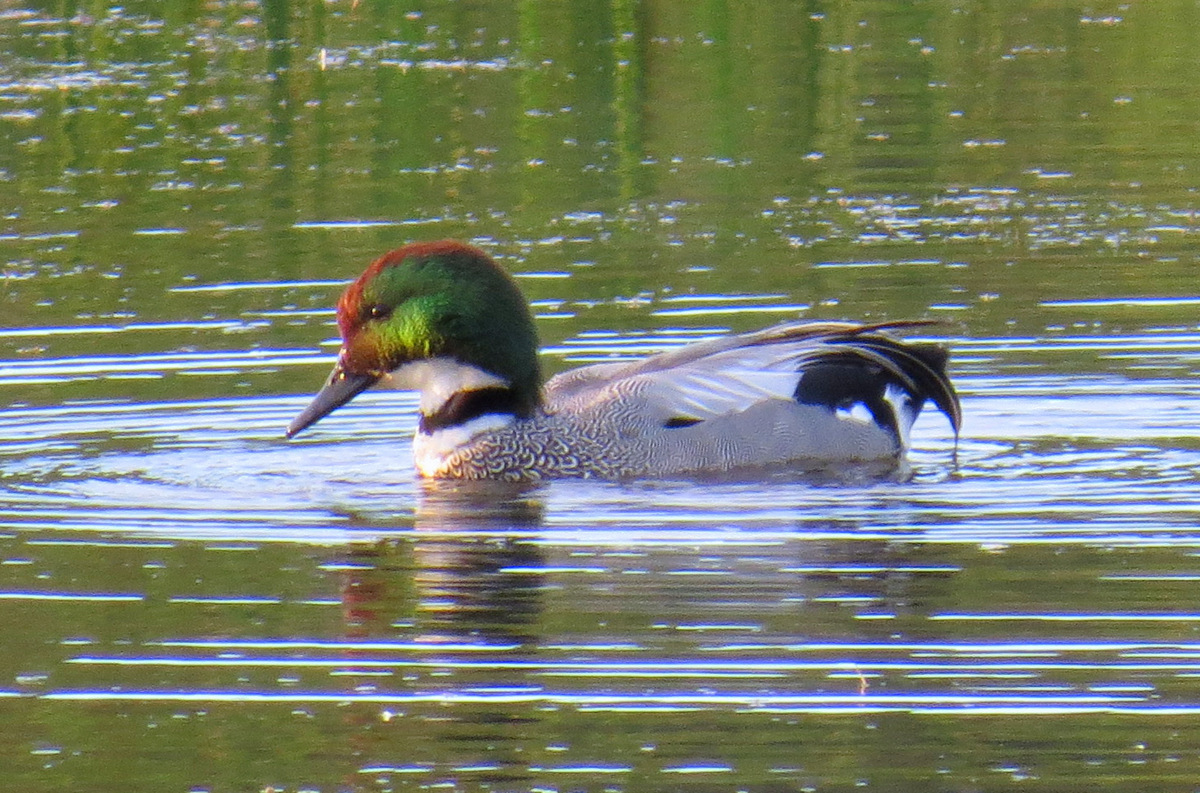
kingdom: Animalia
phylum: Chordata
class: Aves
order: Anseriformes
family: Anatidae
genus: Mareca
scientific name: Mareca falcata
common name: Falcated duck
